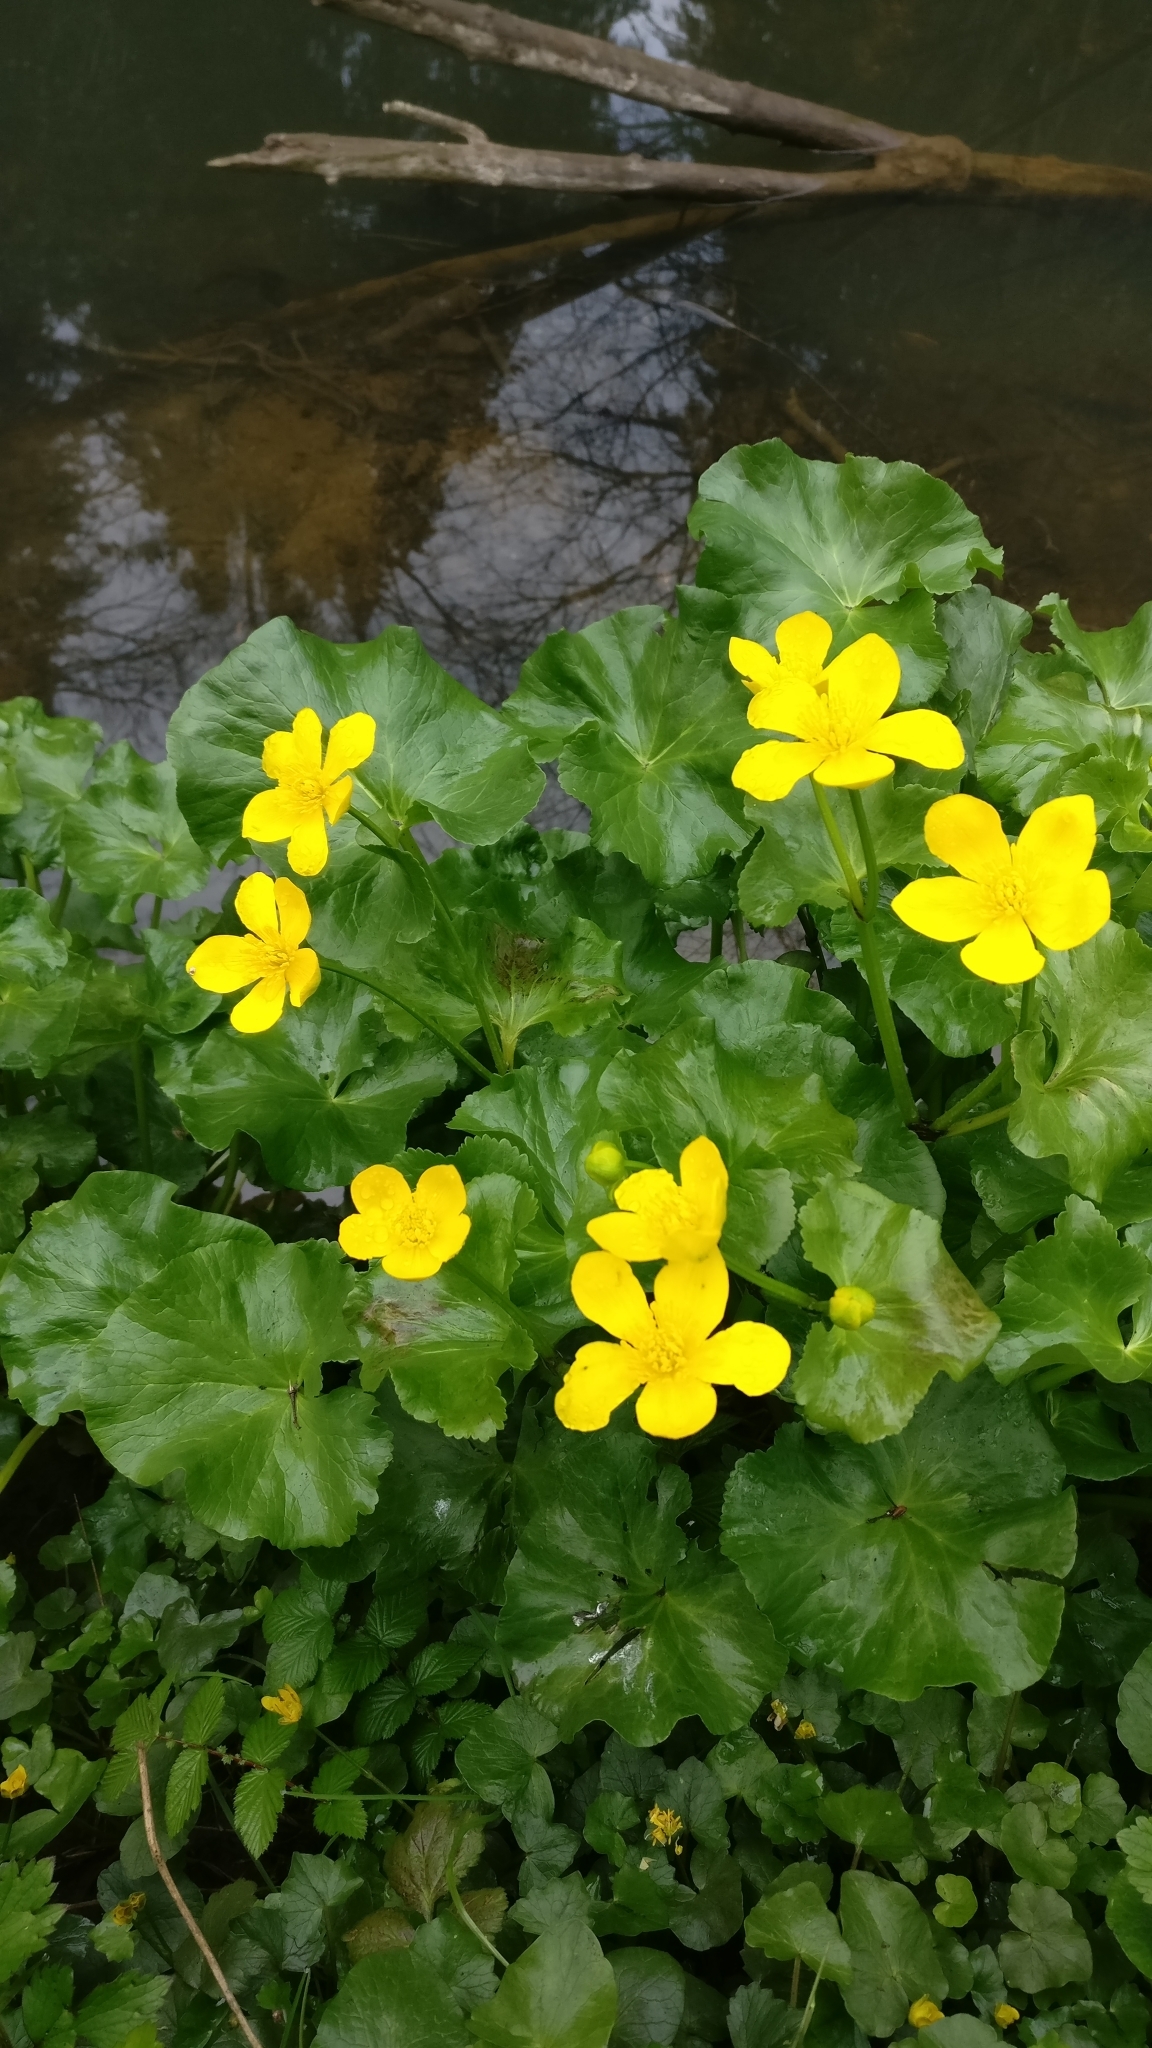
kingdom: Plantae
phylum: Tracheophyta
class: Magnoliopsida
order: Ranunculales
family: Ranunculaceae
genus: Caltha
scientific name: Caltha palustris
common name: Marsh marigold
